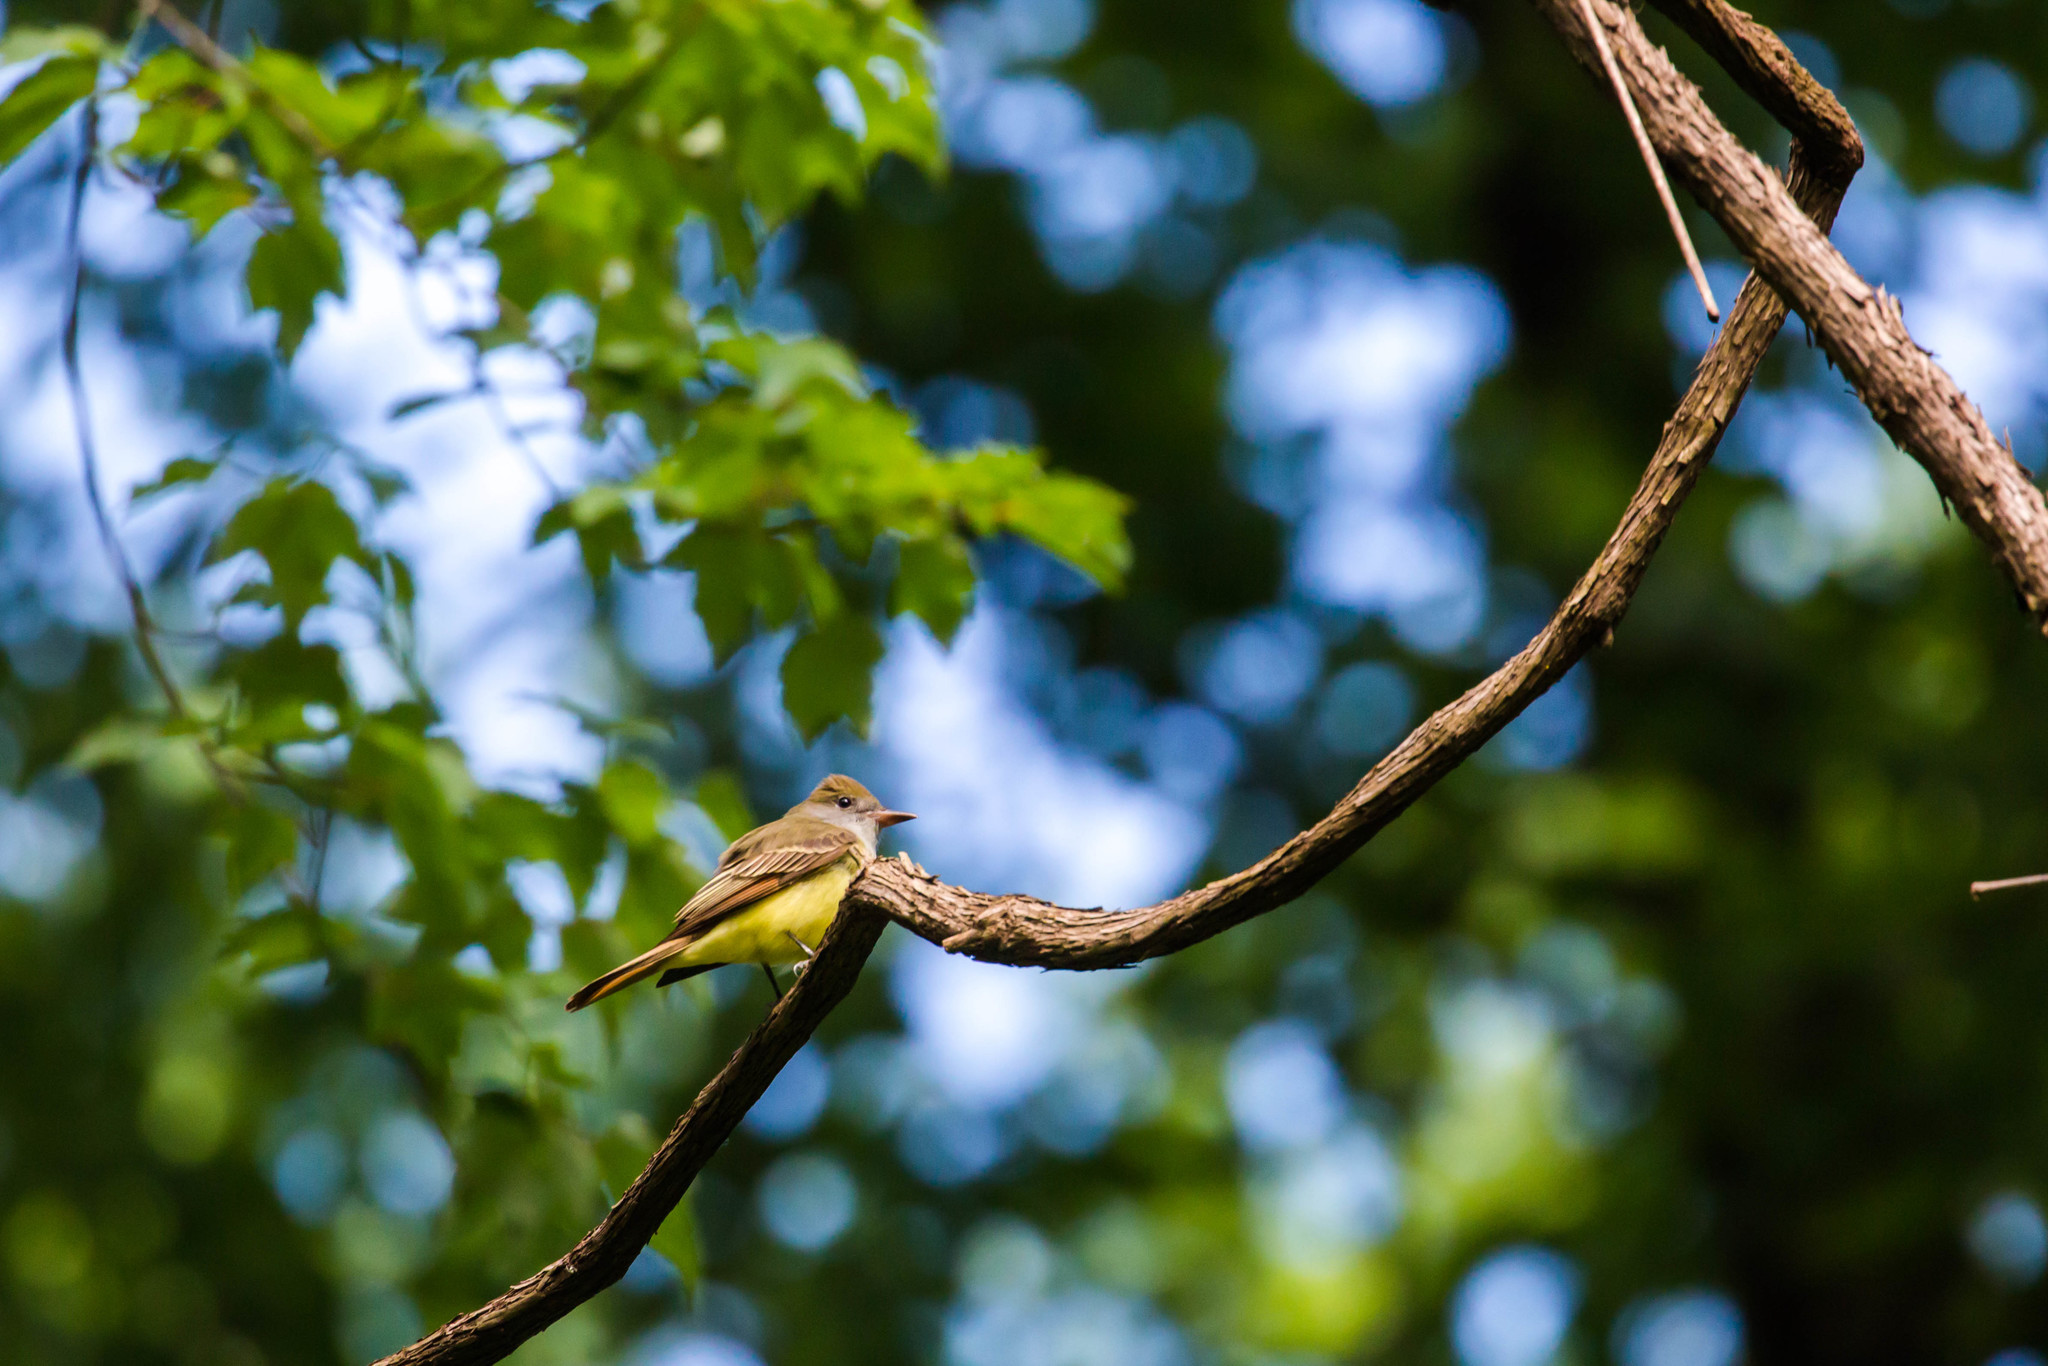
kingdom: Animalia
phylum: Chordata
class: Aves
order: Passeriformes
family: Tyrannidae
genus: Myiarchus
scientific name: Myiarchus crinitus
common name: Great crested flycatcher
